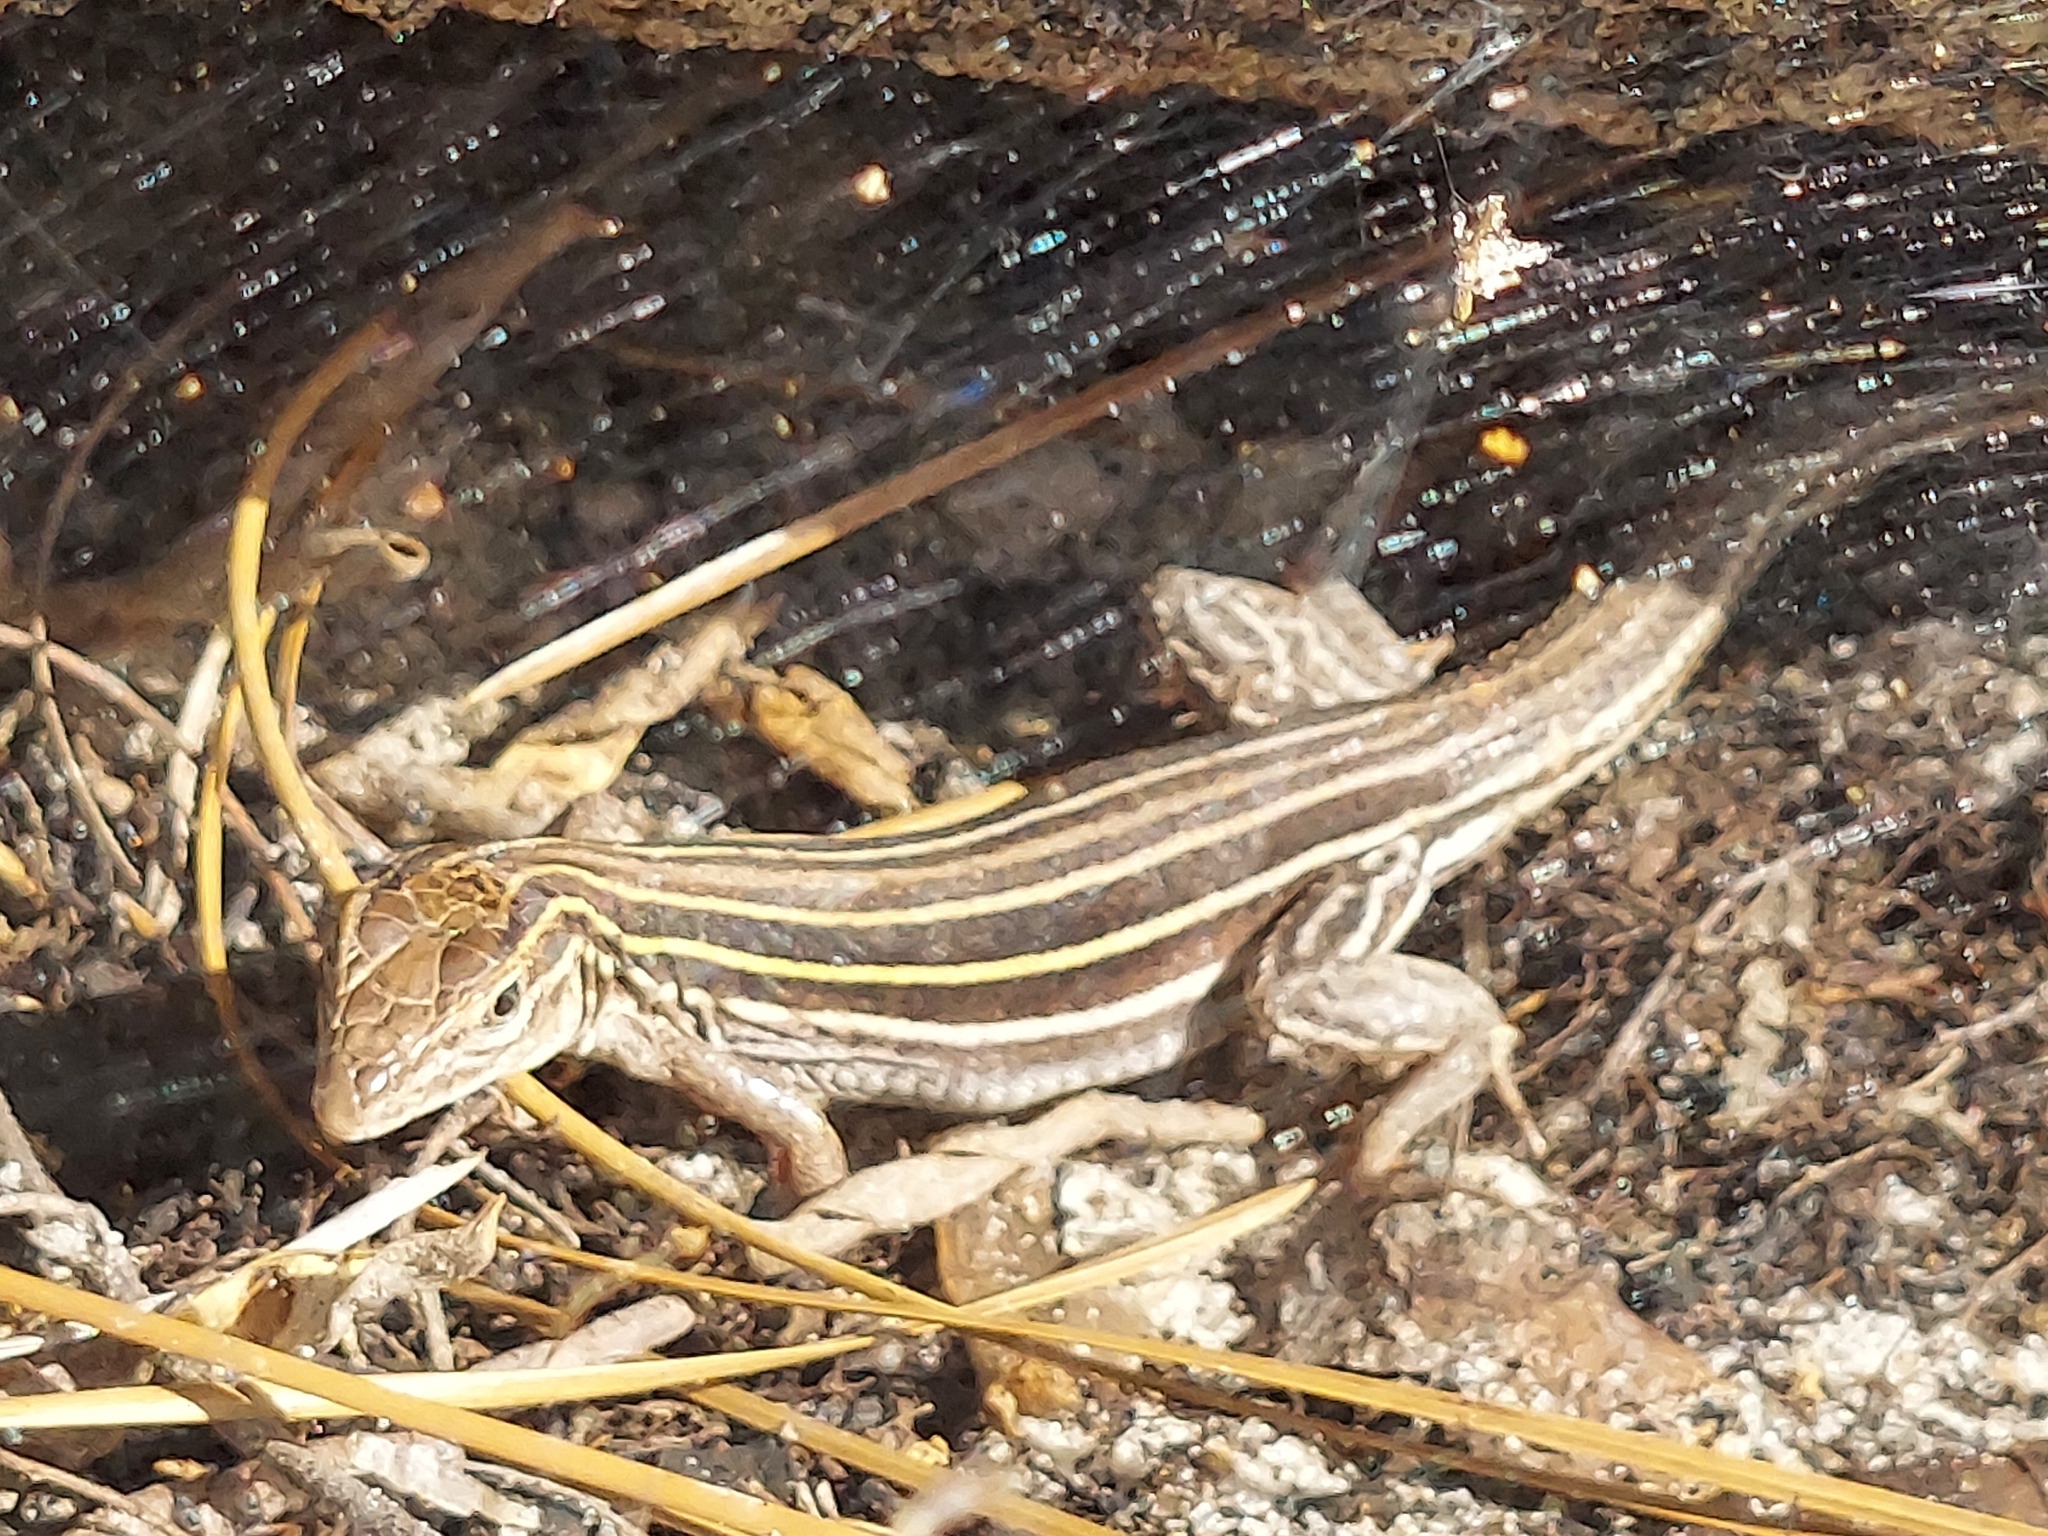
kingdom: Animalia
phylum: Chordata
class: Squamata
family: Teiidae
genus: Aspidoscelis
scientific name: Aspidoscelis sexlineatus
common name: Six-lined racerunner
